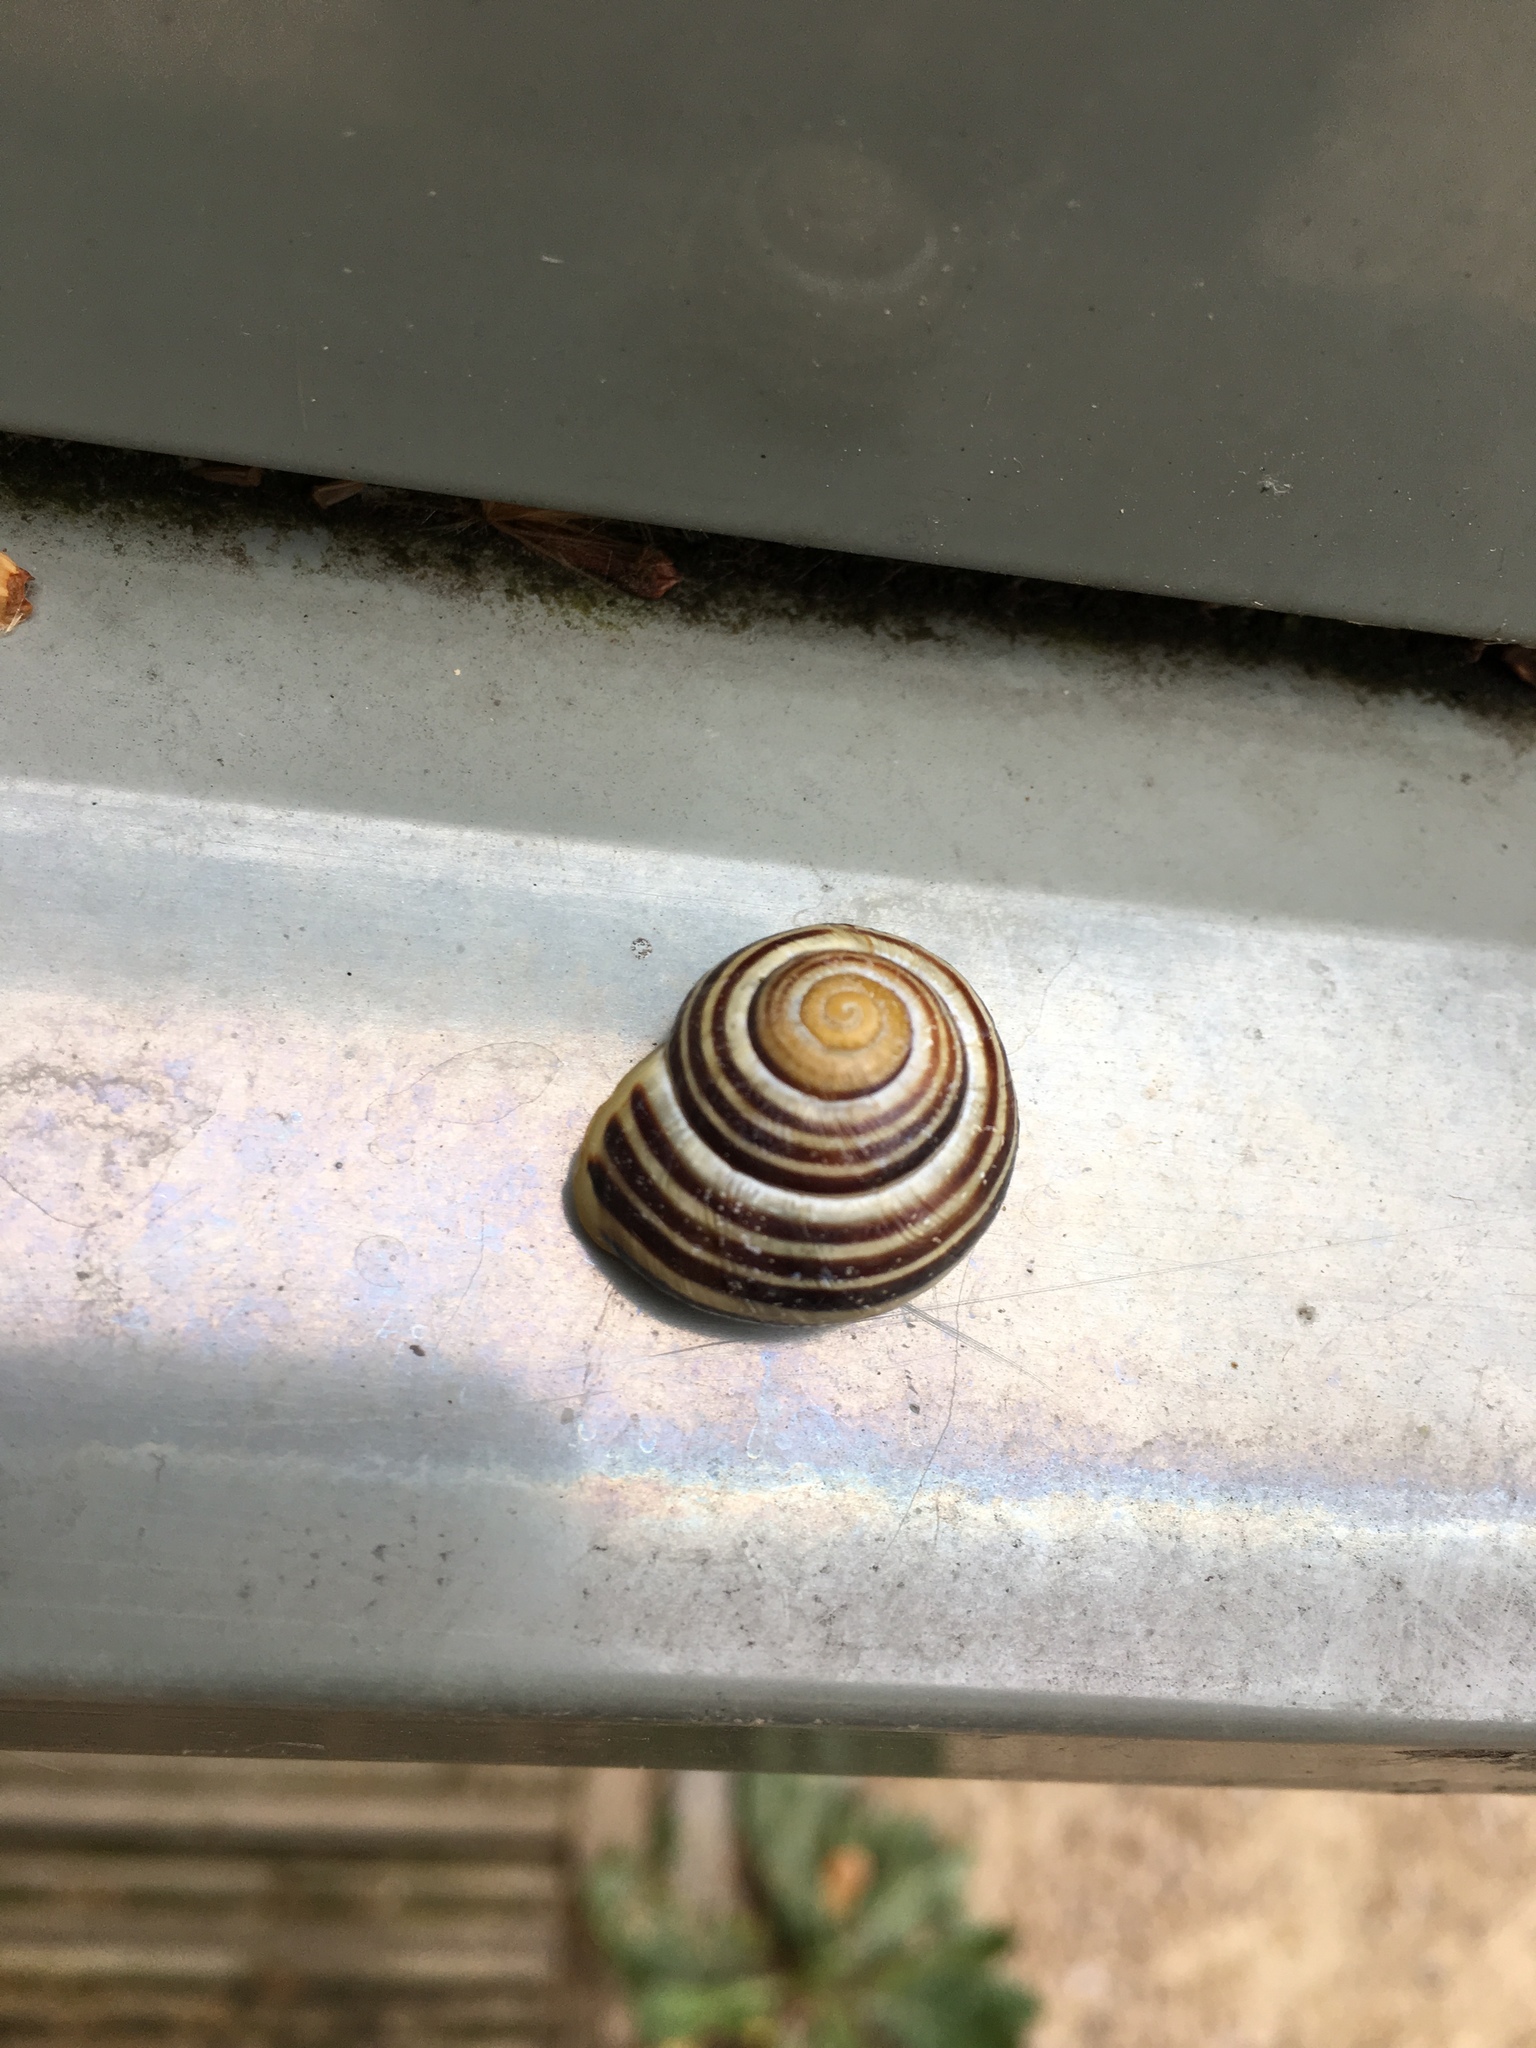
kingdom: Animalia
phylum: Mollusca
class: Gastropoda
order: Stylommatophora
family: Helicidae
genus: Cepaea
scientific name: Cepaea hortensis
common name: White-lip gardensnail
